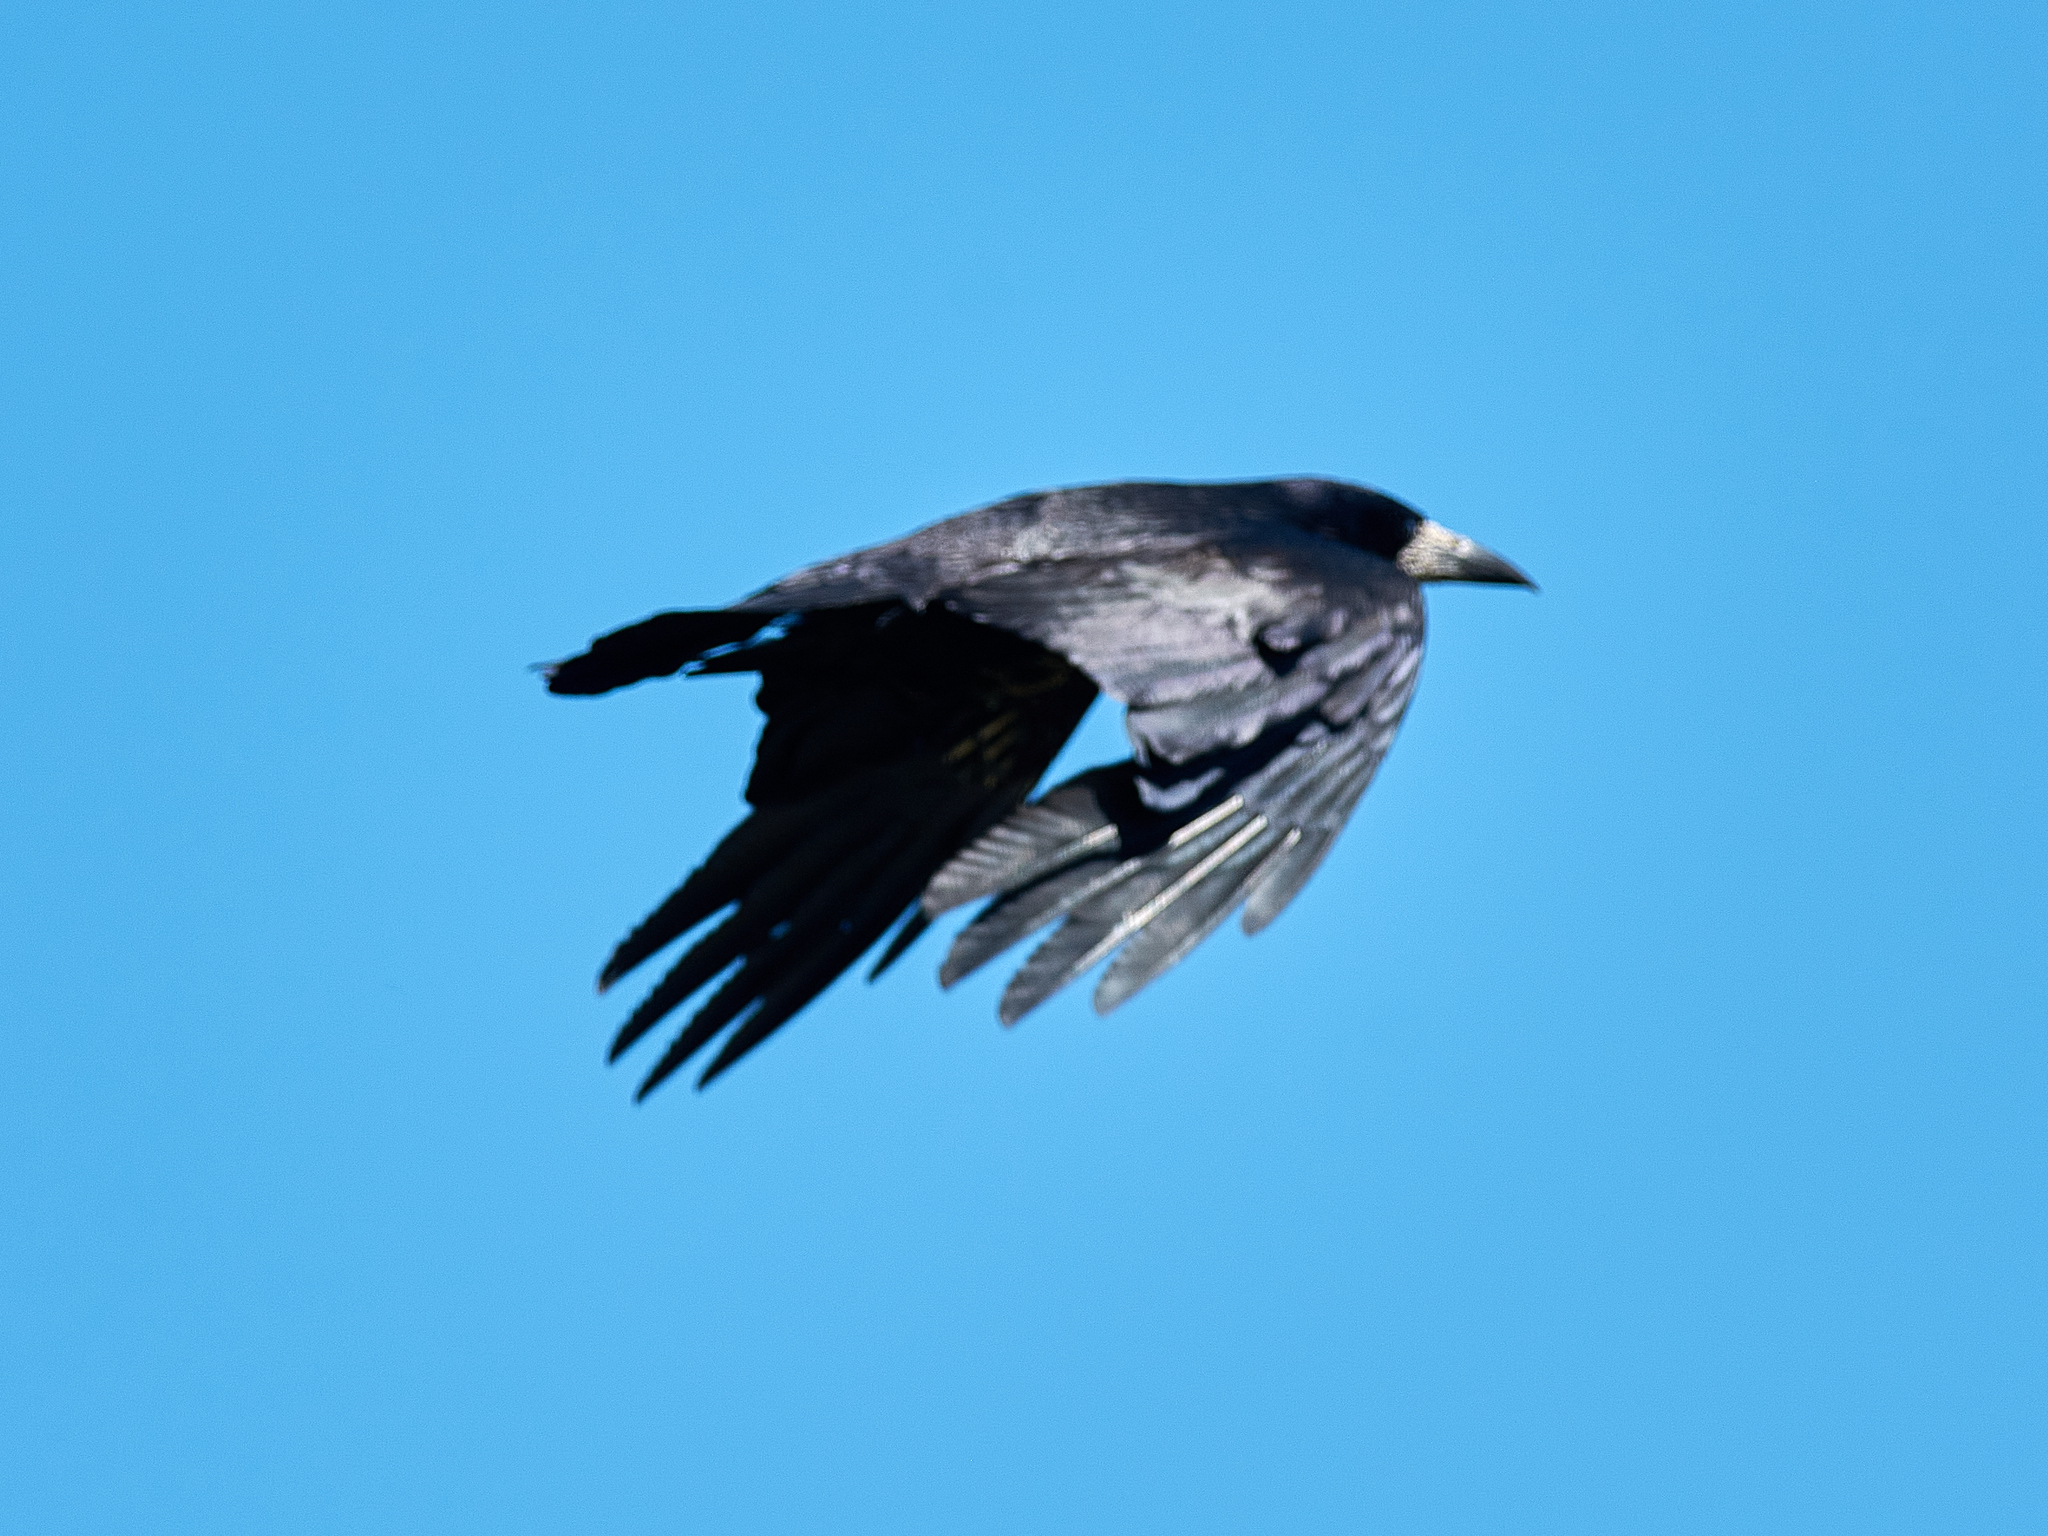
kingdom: Animalia
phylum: Chordata
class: Aves
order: Passeriformes
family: Corvidae
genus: Corvus
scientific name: Corvus frugilegus
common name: Rook
